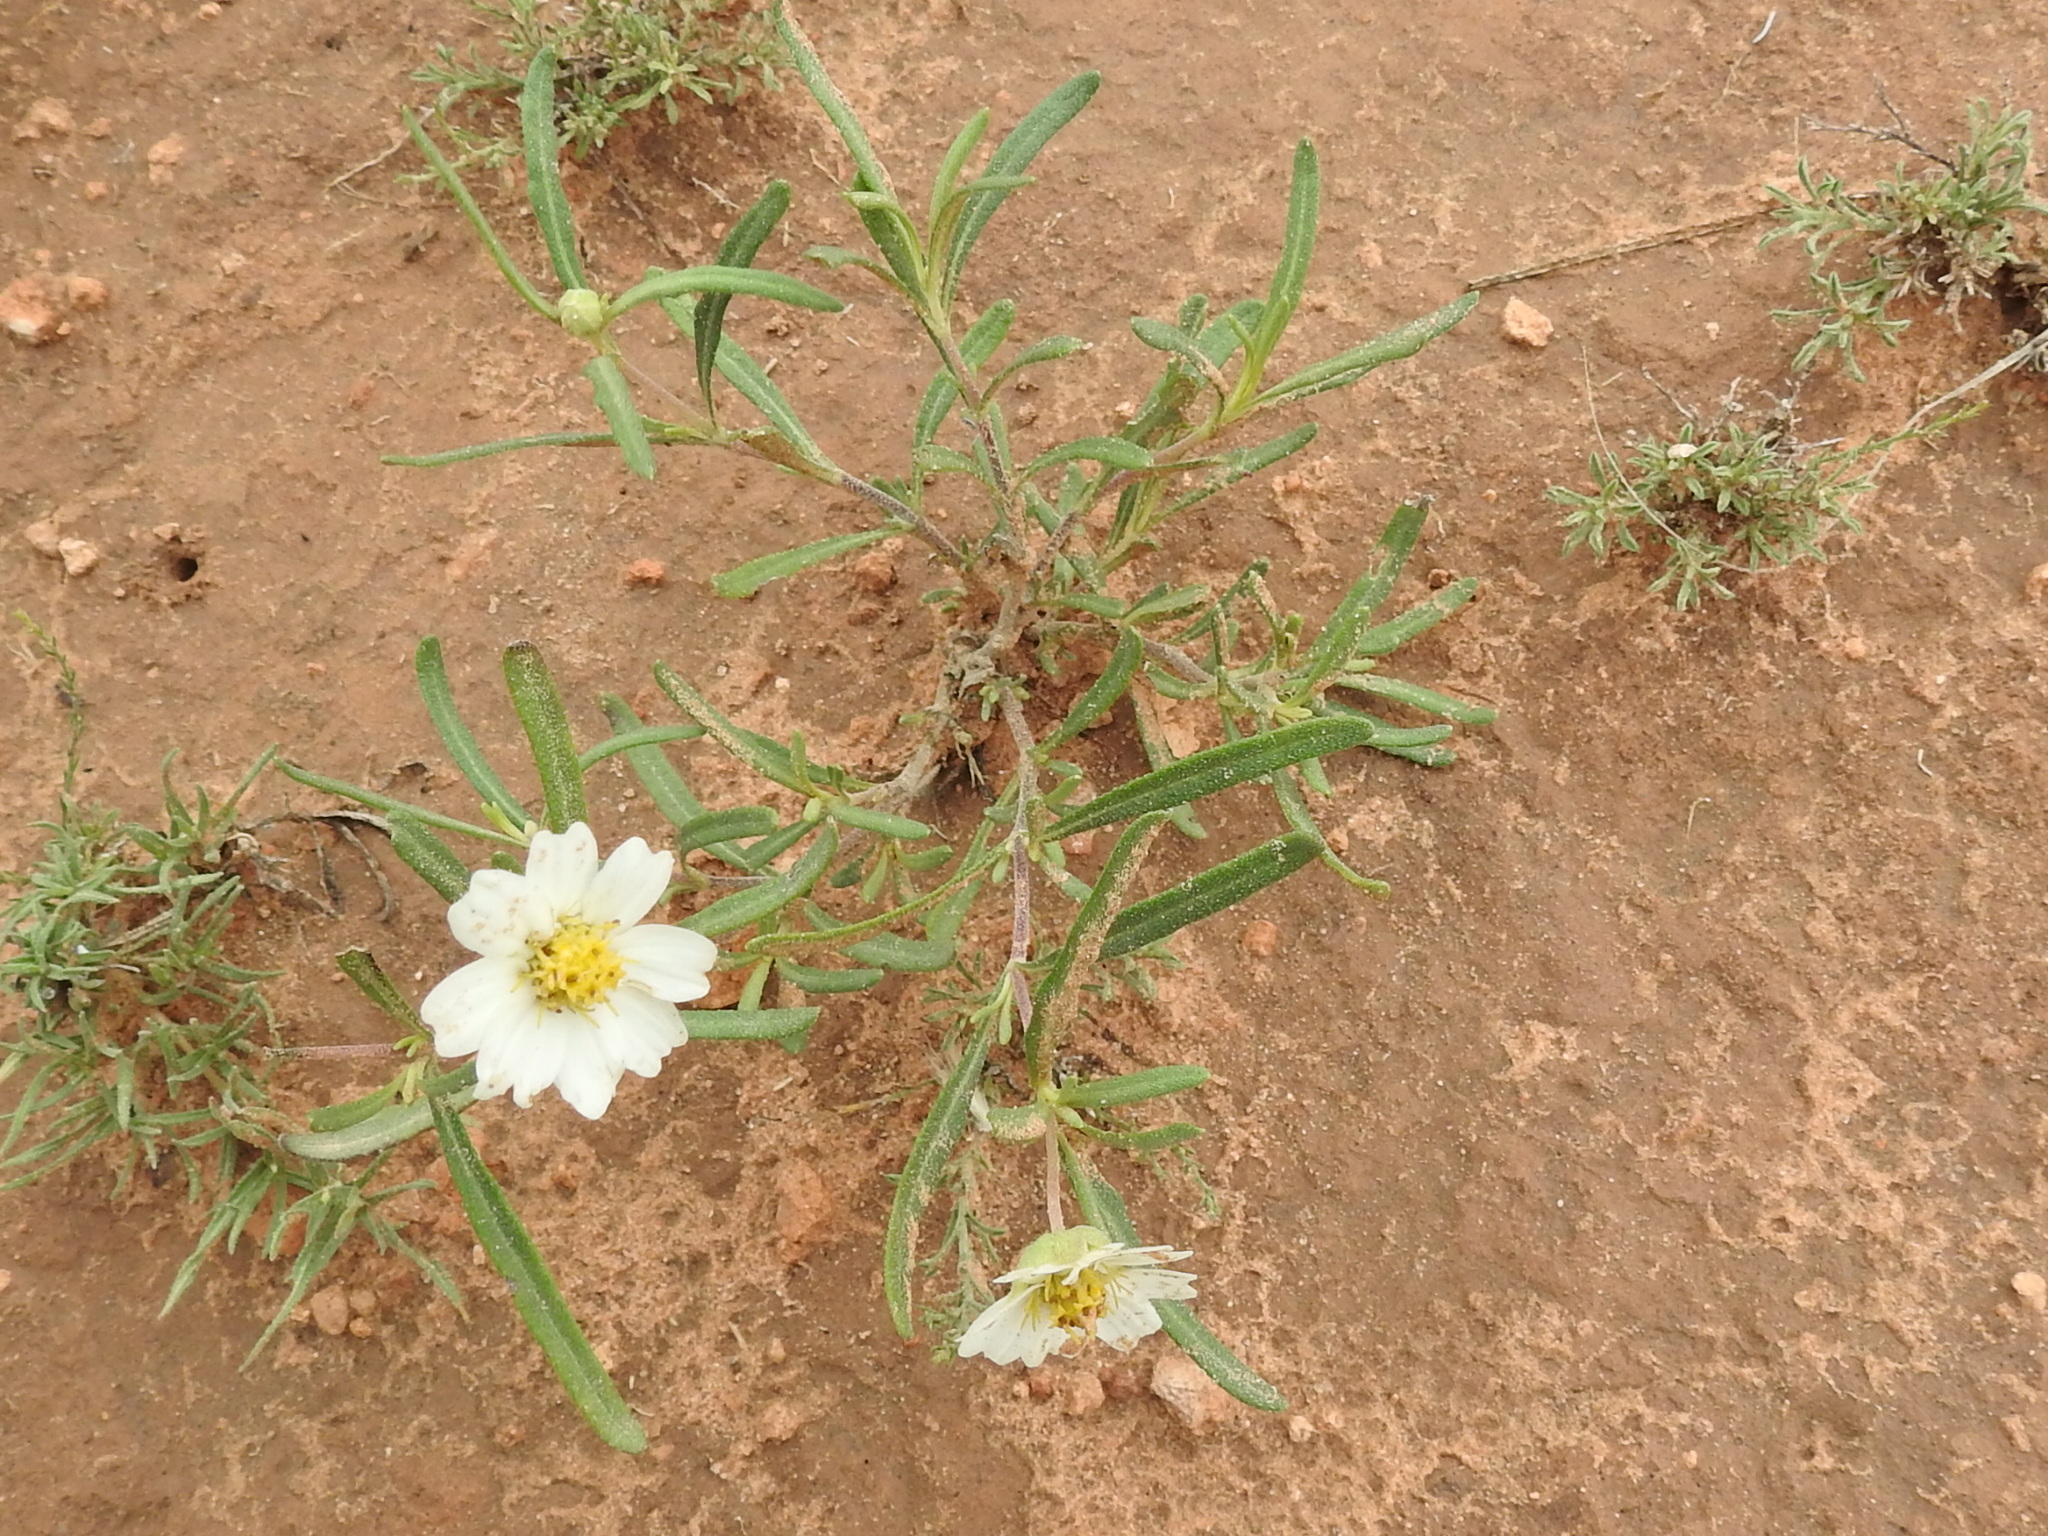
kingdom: Plantae
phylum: Tracheophyta
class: Magnoliopsida
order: Asterales
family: Asteraceae
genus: Melampodium
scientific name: Melampodium leucanthum
